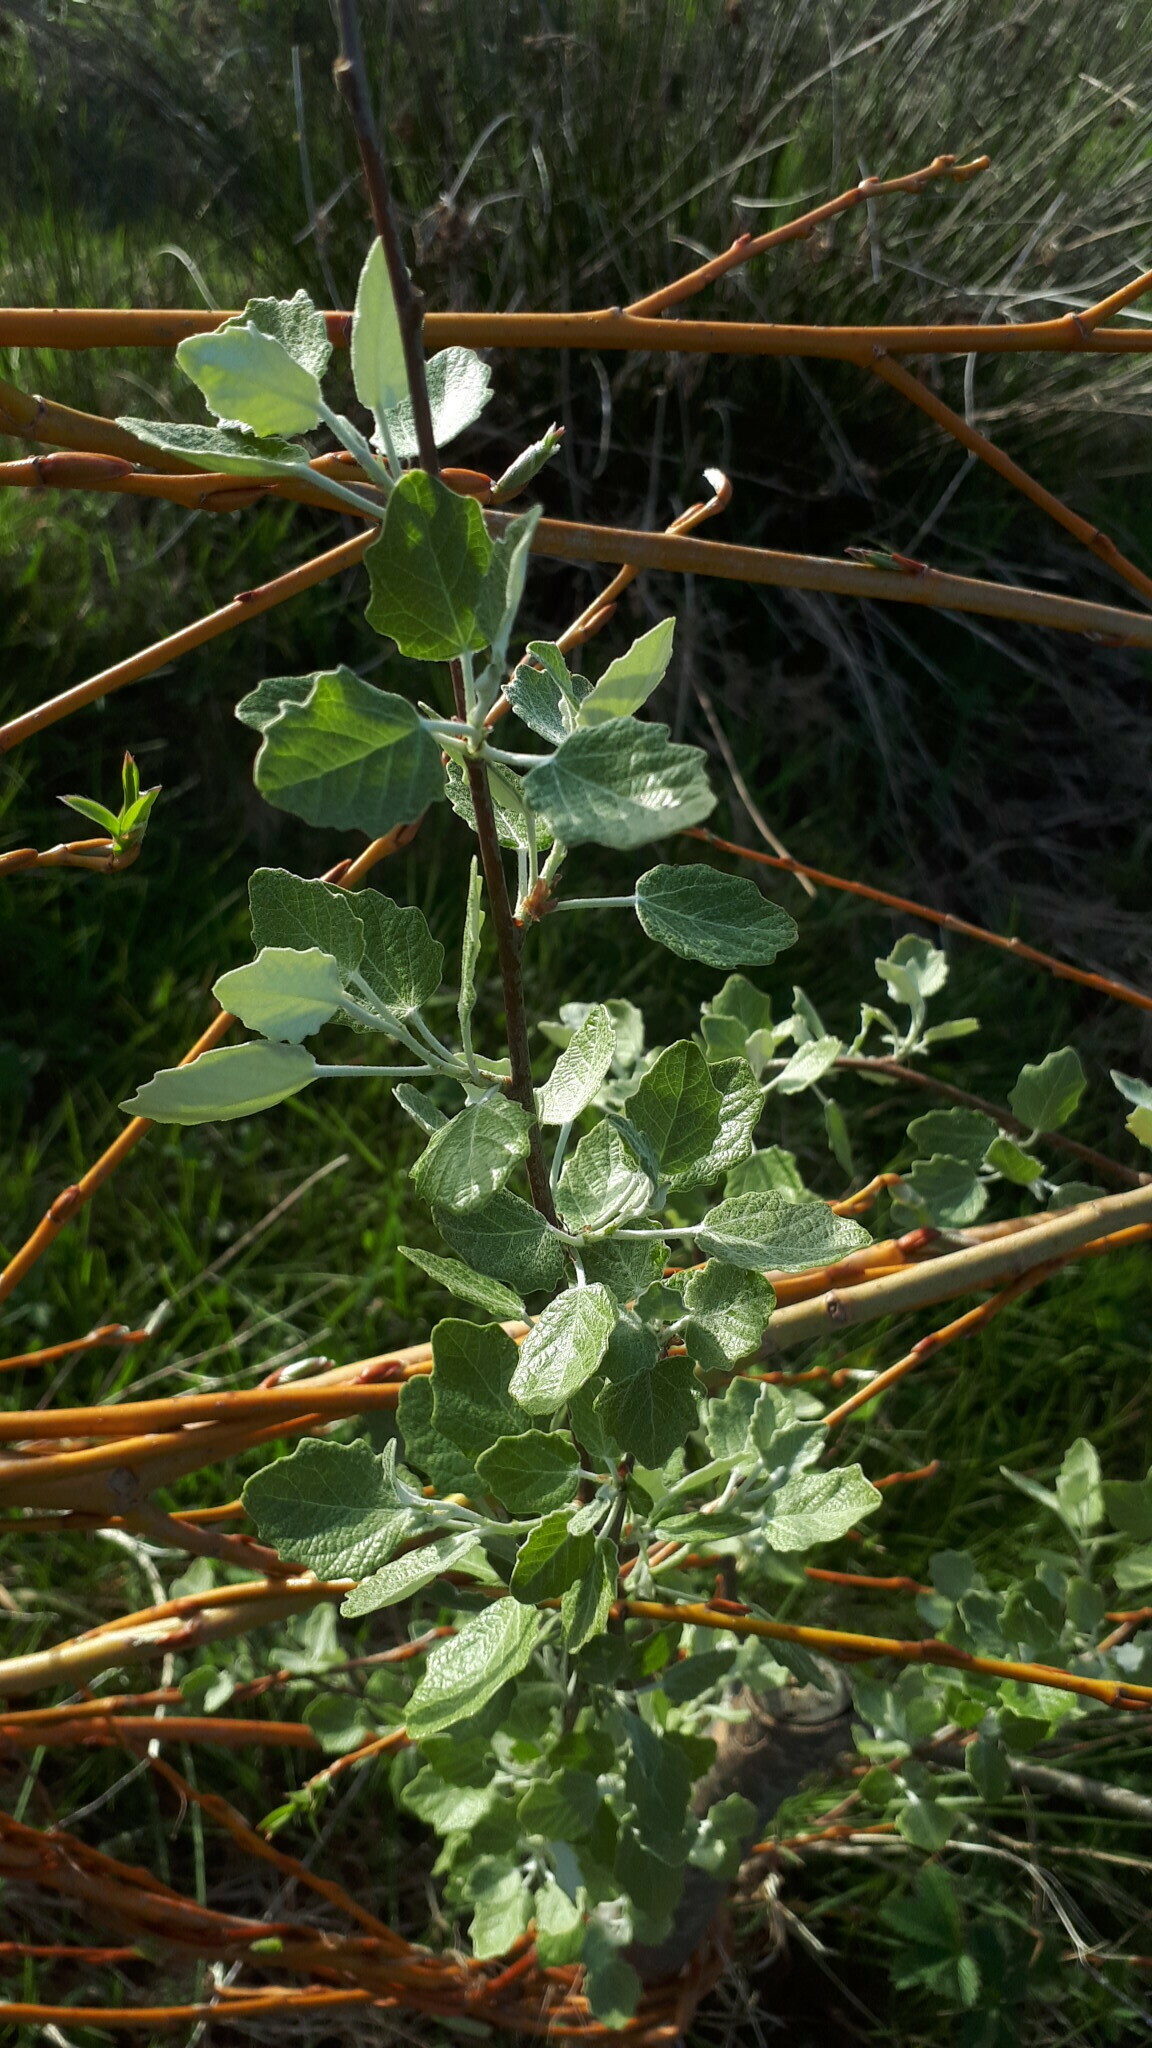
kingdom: Plantae
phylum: Tracheophyta
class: Magnoliopsida
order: Malpighiales
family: Salicaceae
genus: Populus
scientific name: Populus alba
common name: White poplar
